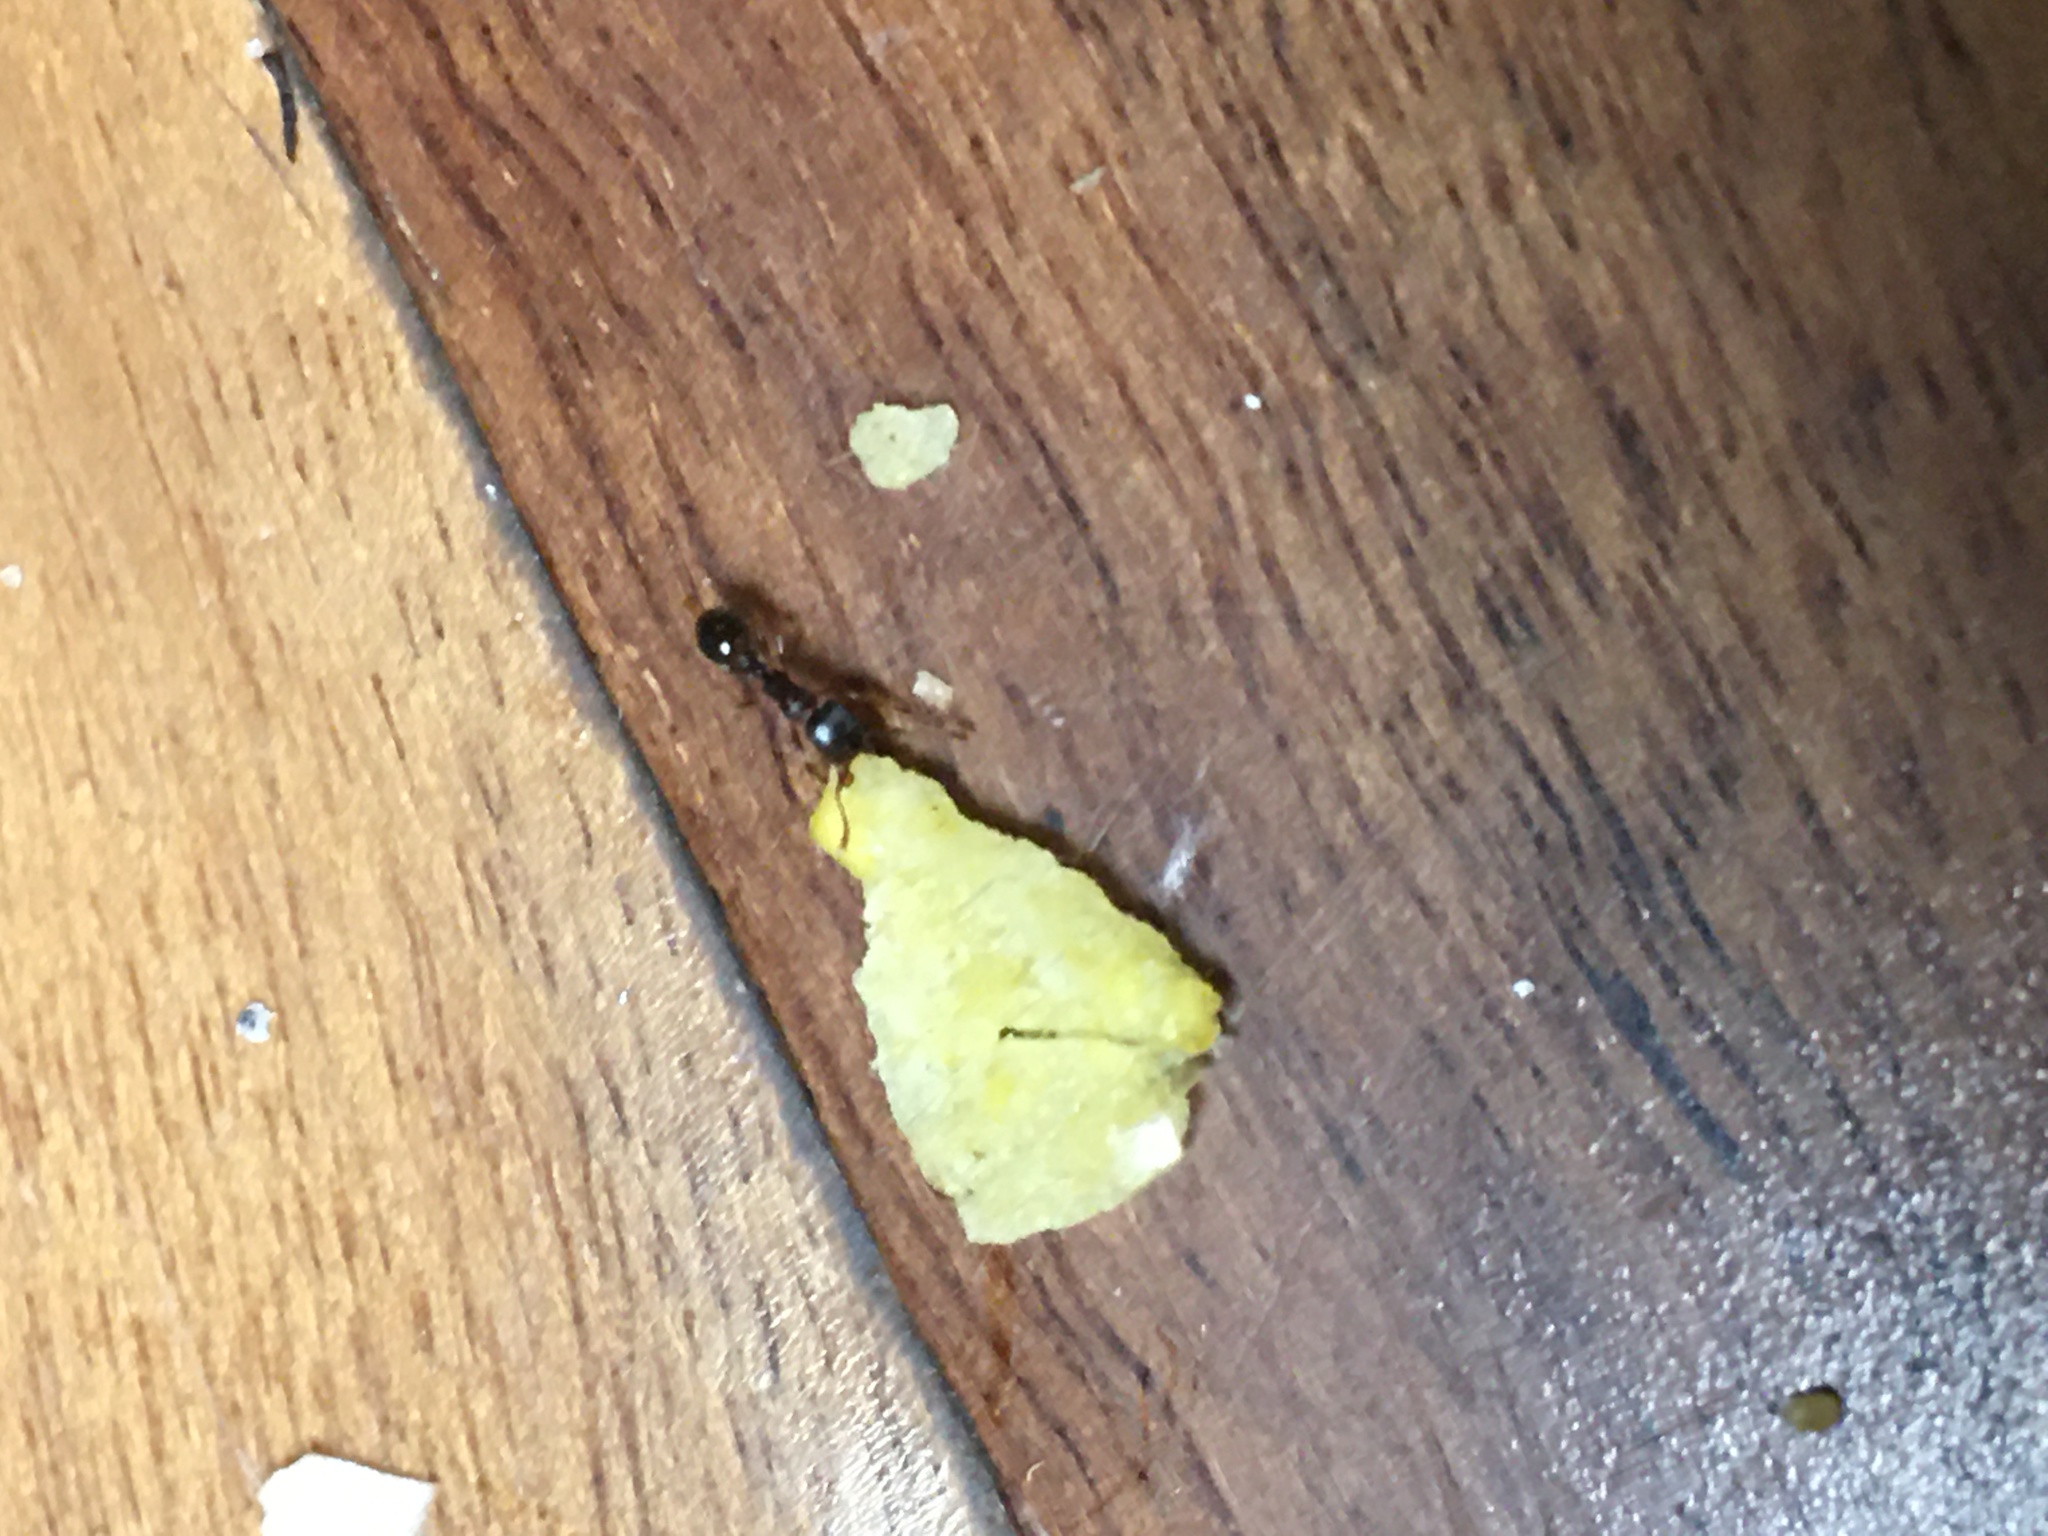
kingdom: Animalia
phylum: Arthropoda
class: Insecta
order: Hymenoptera
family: Formicidae
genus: Tetramorium
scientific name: Tetramorium immigrans
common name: Pavement ant
